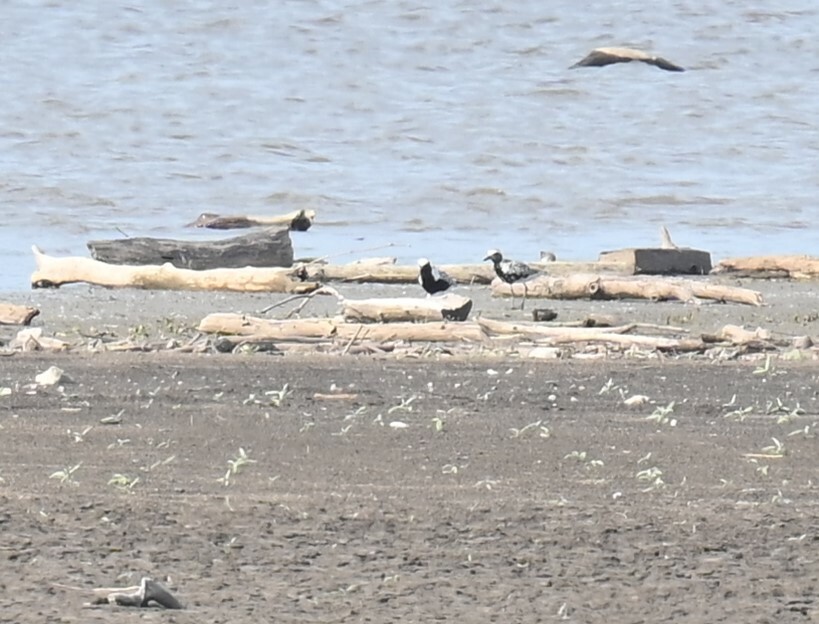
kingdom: Animalia
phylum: Chordata
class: Aves
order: Charadriiformes
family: Charadriidae
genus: Pluvialis
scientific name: Pluvialis squatarola
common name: Grey plover
